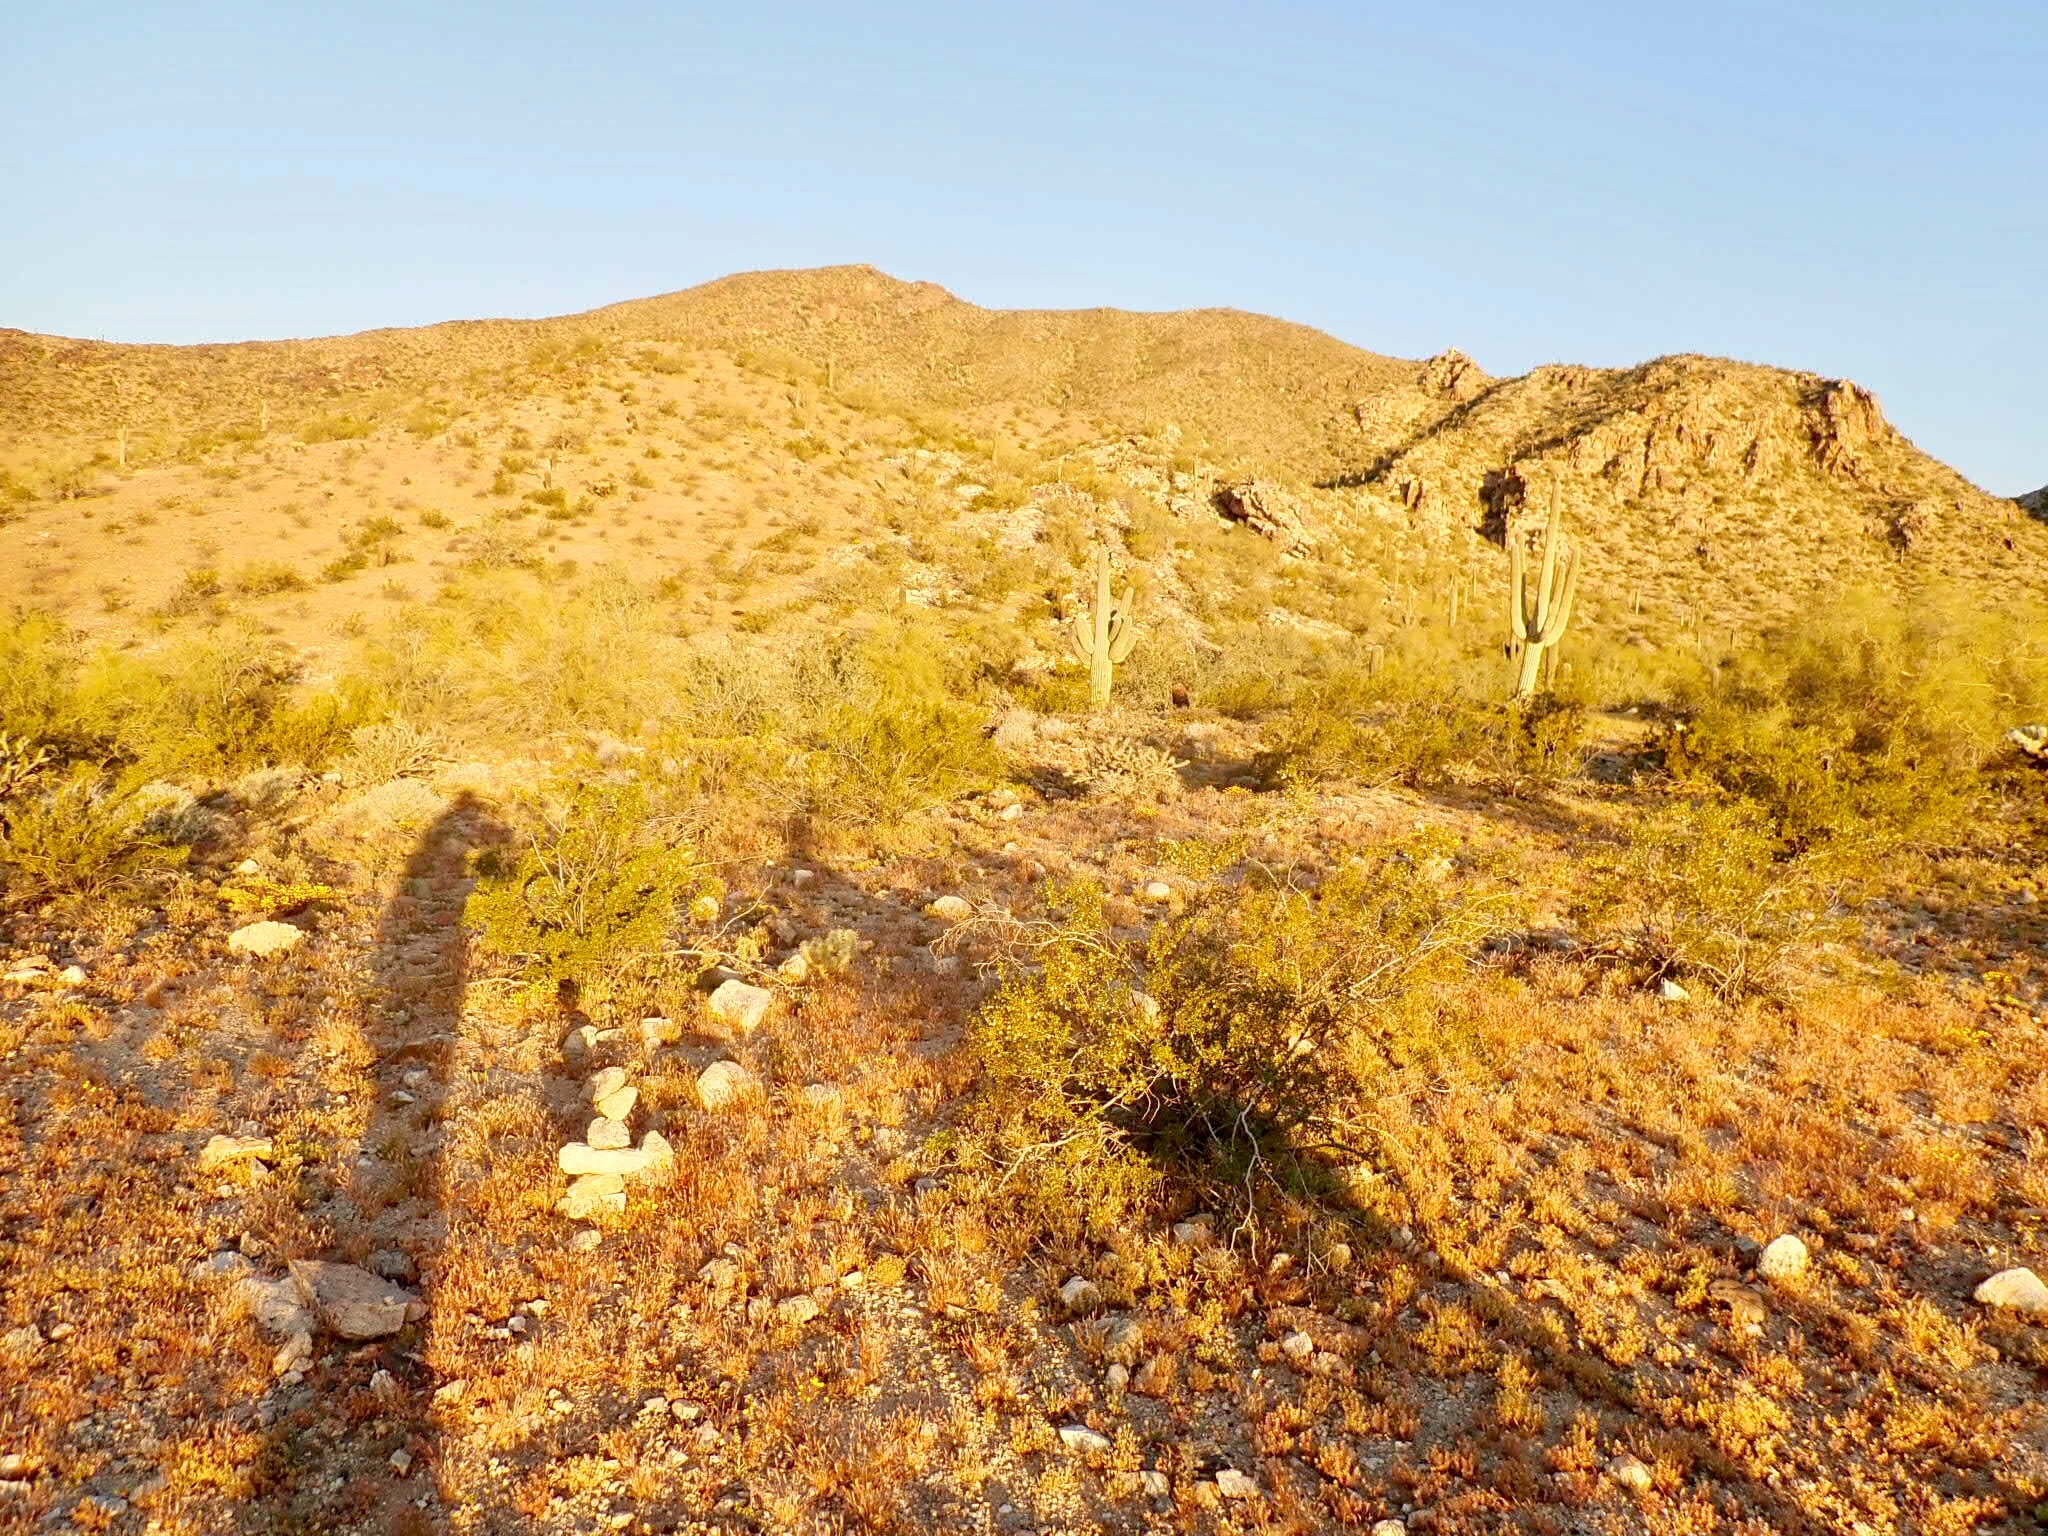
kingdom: Plantae
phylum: Tracheophyta
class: Magnoliopsida
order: Caryophyllales
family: Cactaceae
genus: Carnegiea
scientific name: Carnegiea gigantea
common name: Saguaro
